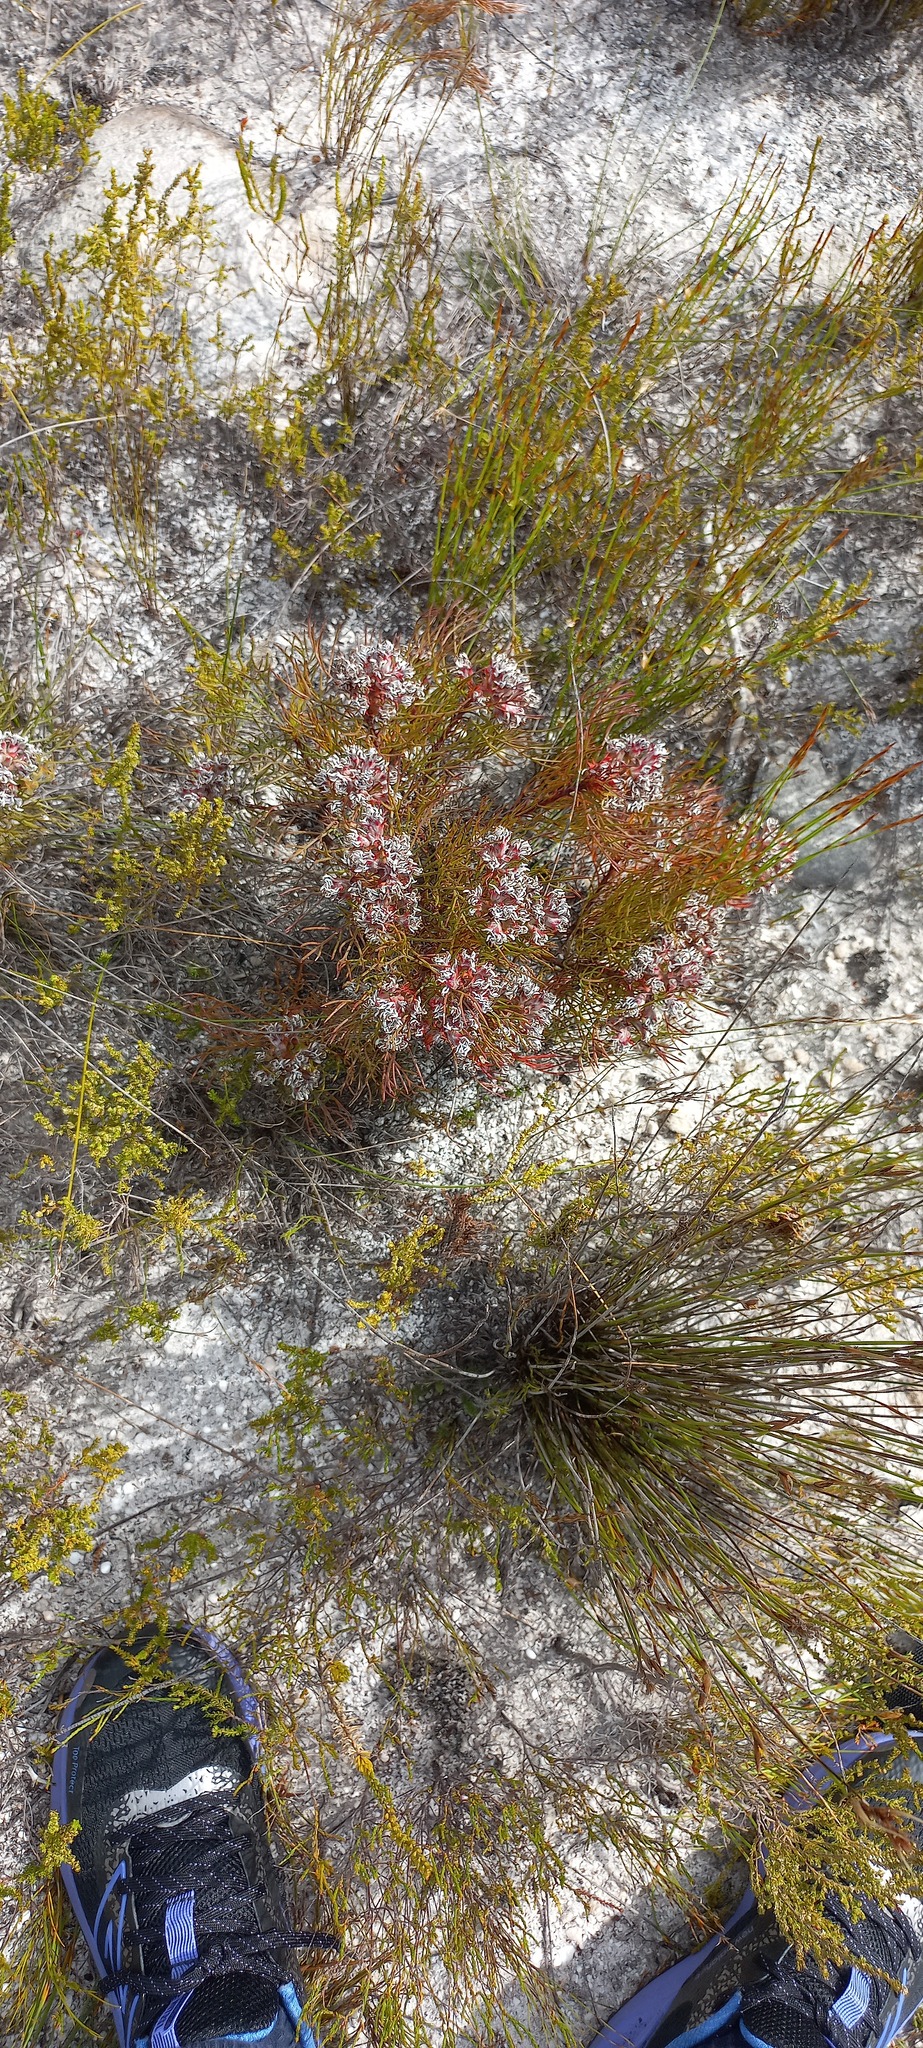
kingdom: Plantae
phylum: Tracheophyta
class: Magnoliopsida
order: Proteales
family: Proteaceae
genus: Serruria
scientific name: Serruria rubricaulis
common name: Red-stem spiderhead
